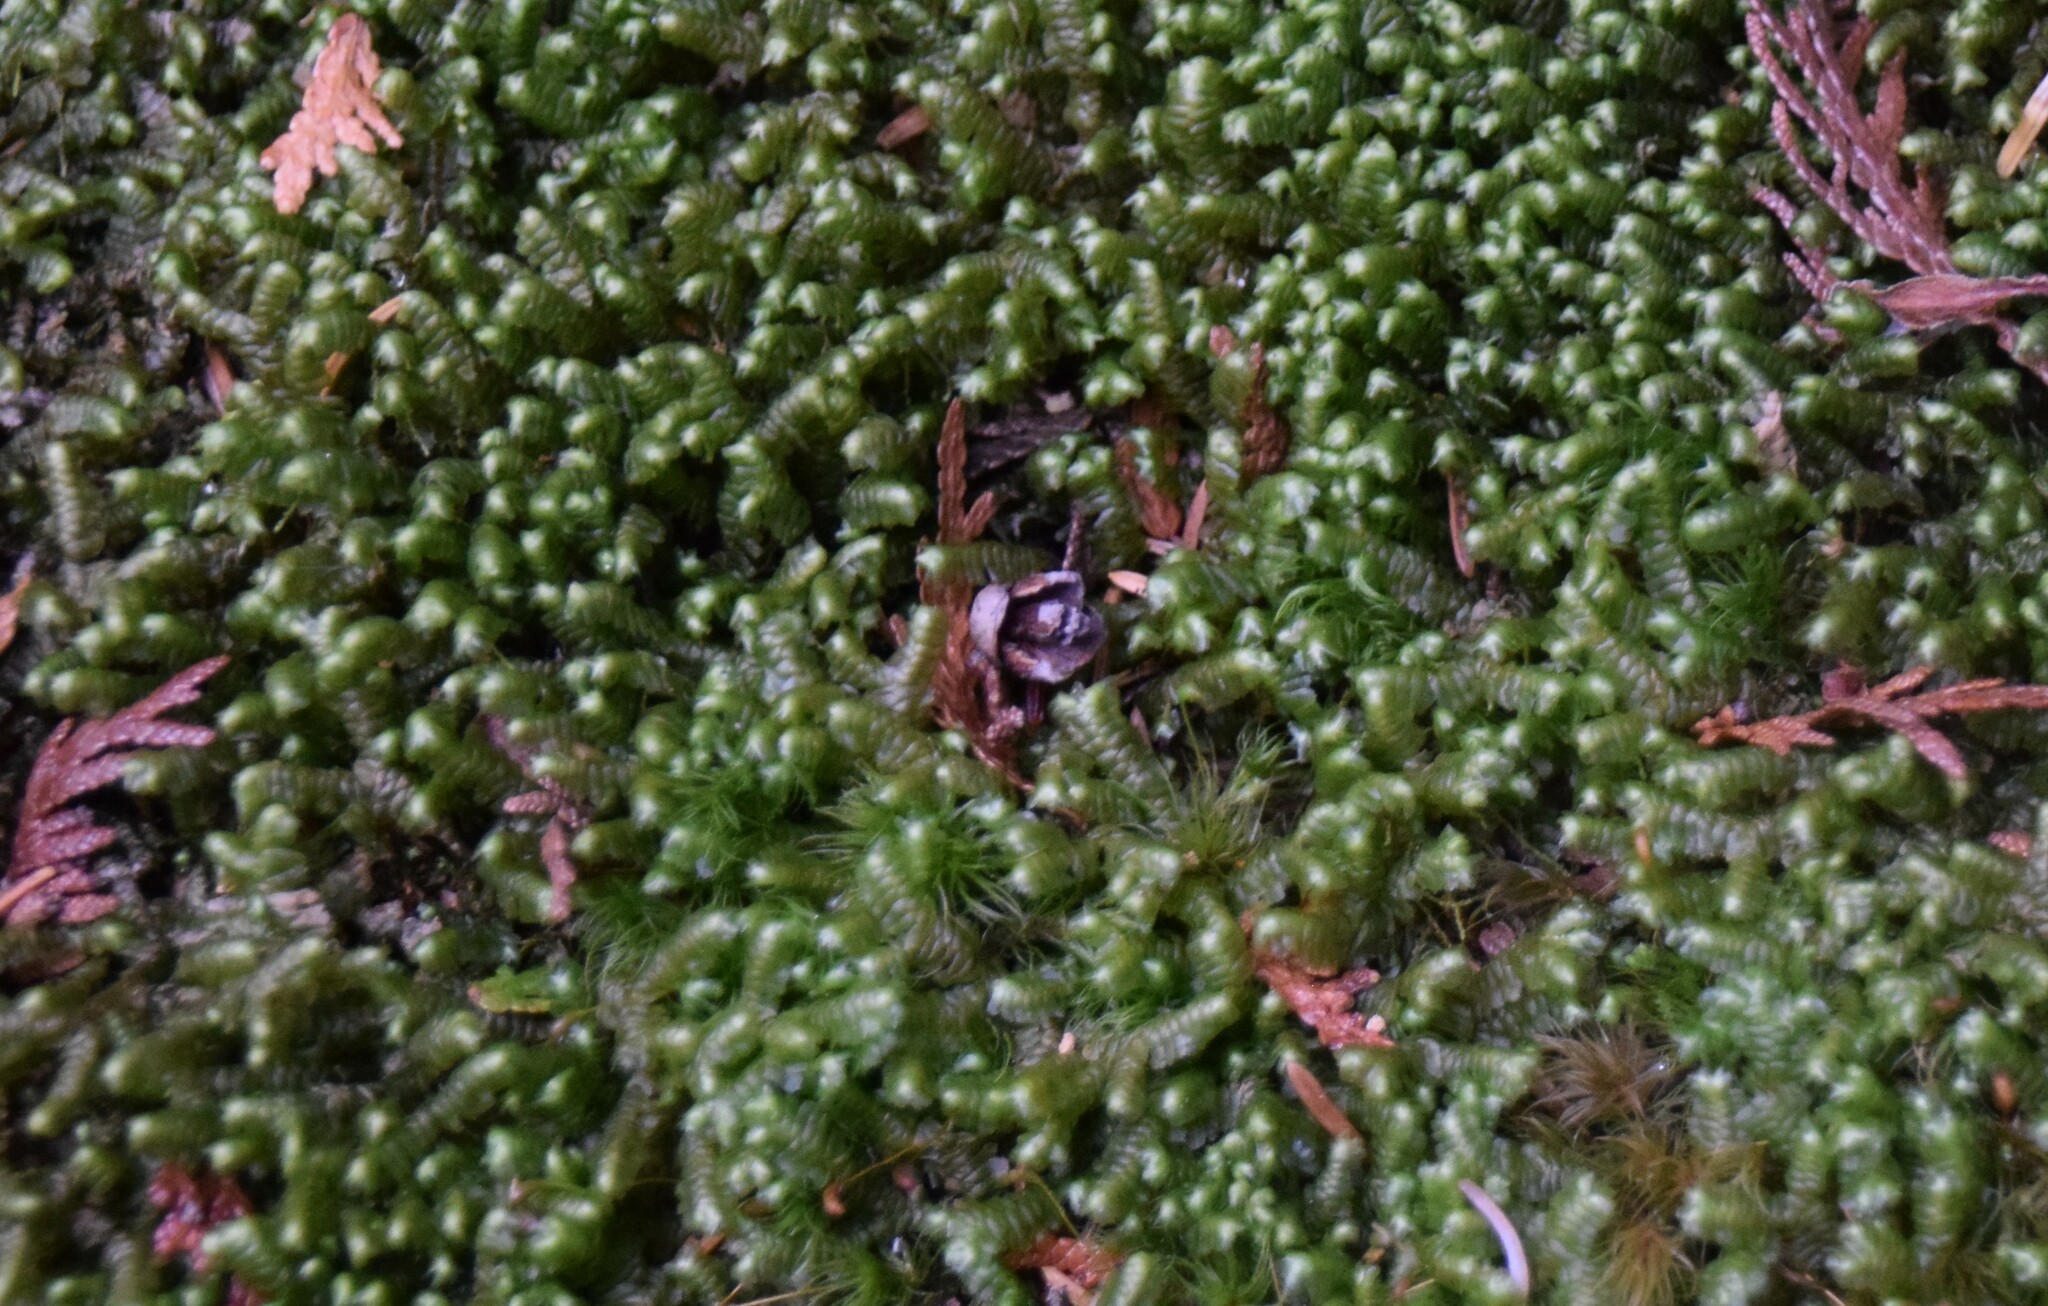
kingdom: Plantae
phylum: Marchantiophyta
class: Jungermanniopsida
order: Jungermanniales
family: Lepidoziaceae
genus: Bazzania
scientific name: Bazzania trilobata
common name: Three-lobed whipwort
